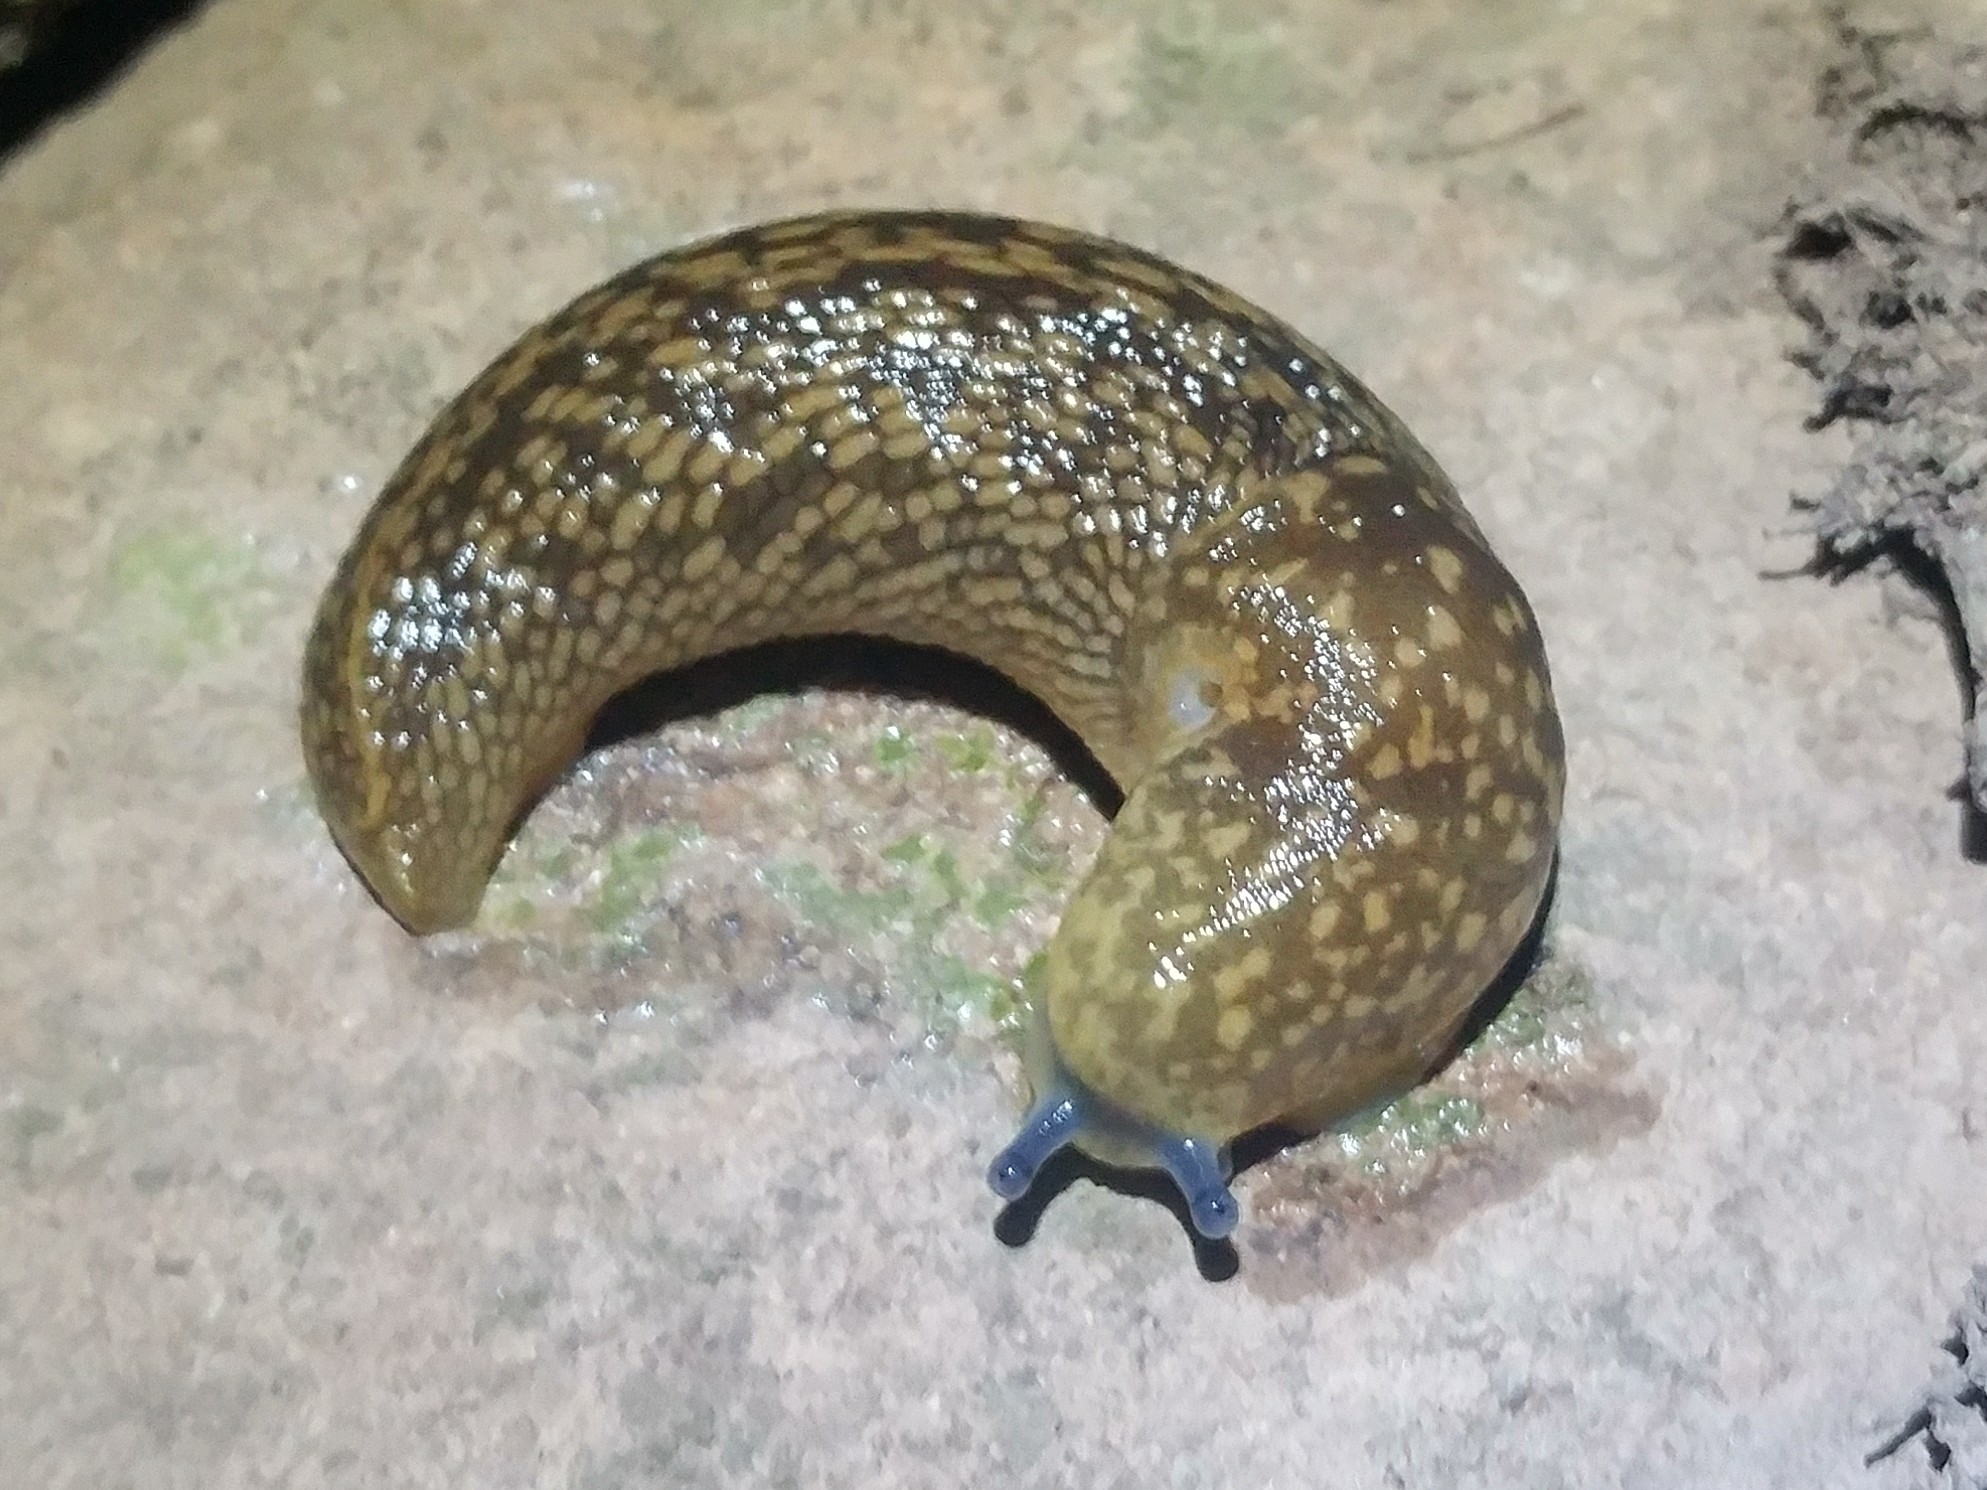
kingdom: Animalia
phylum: Mollusca
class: Gastropoda
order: Stylommatophora
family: Limacidae
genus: Limacus
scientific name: Limacus flavus
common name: Yellow gardenslug
